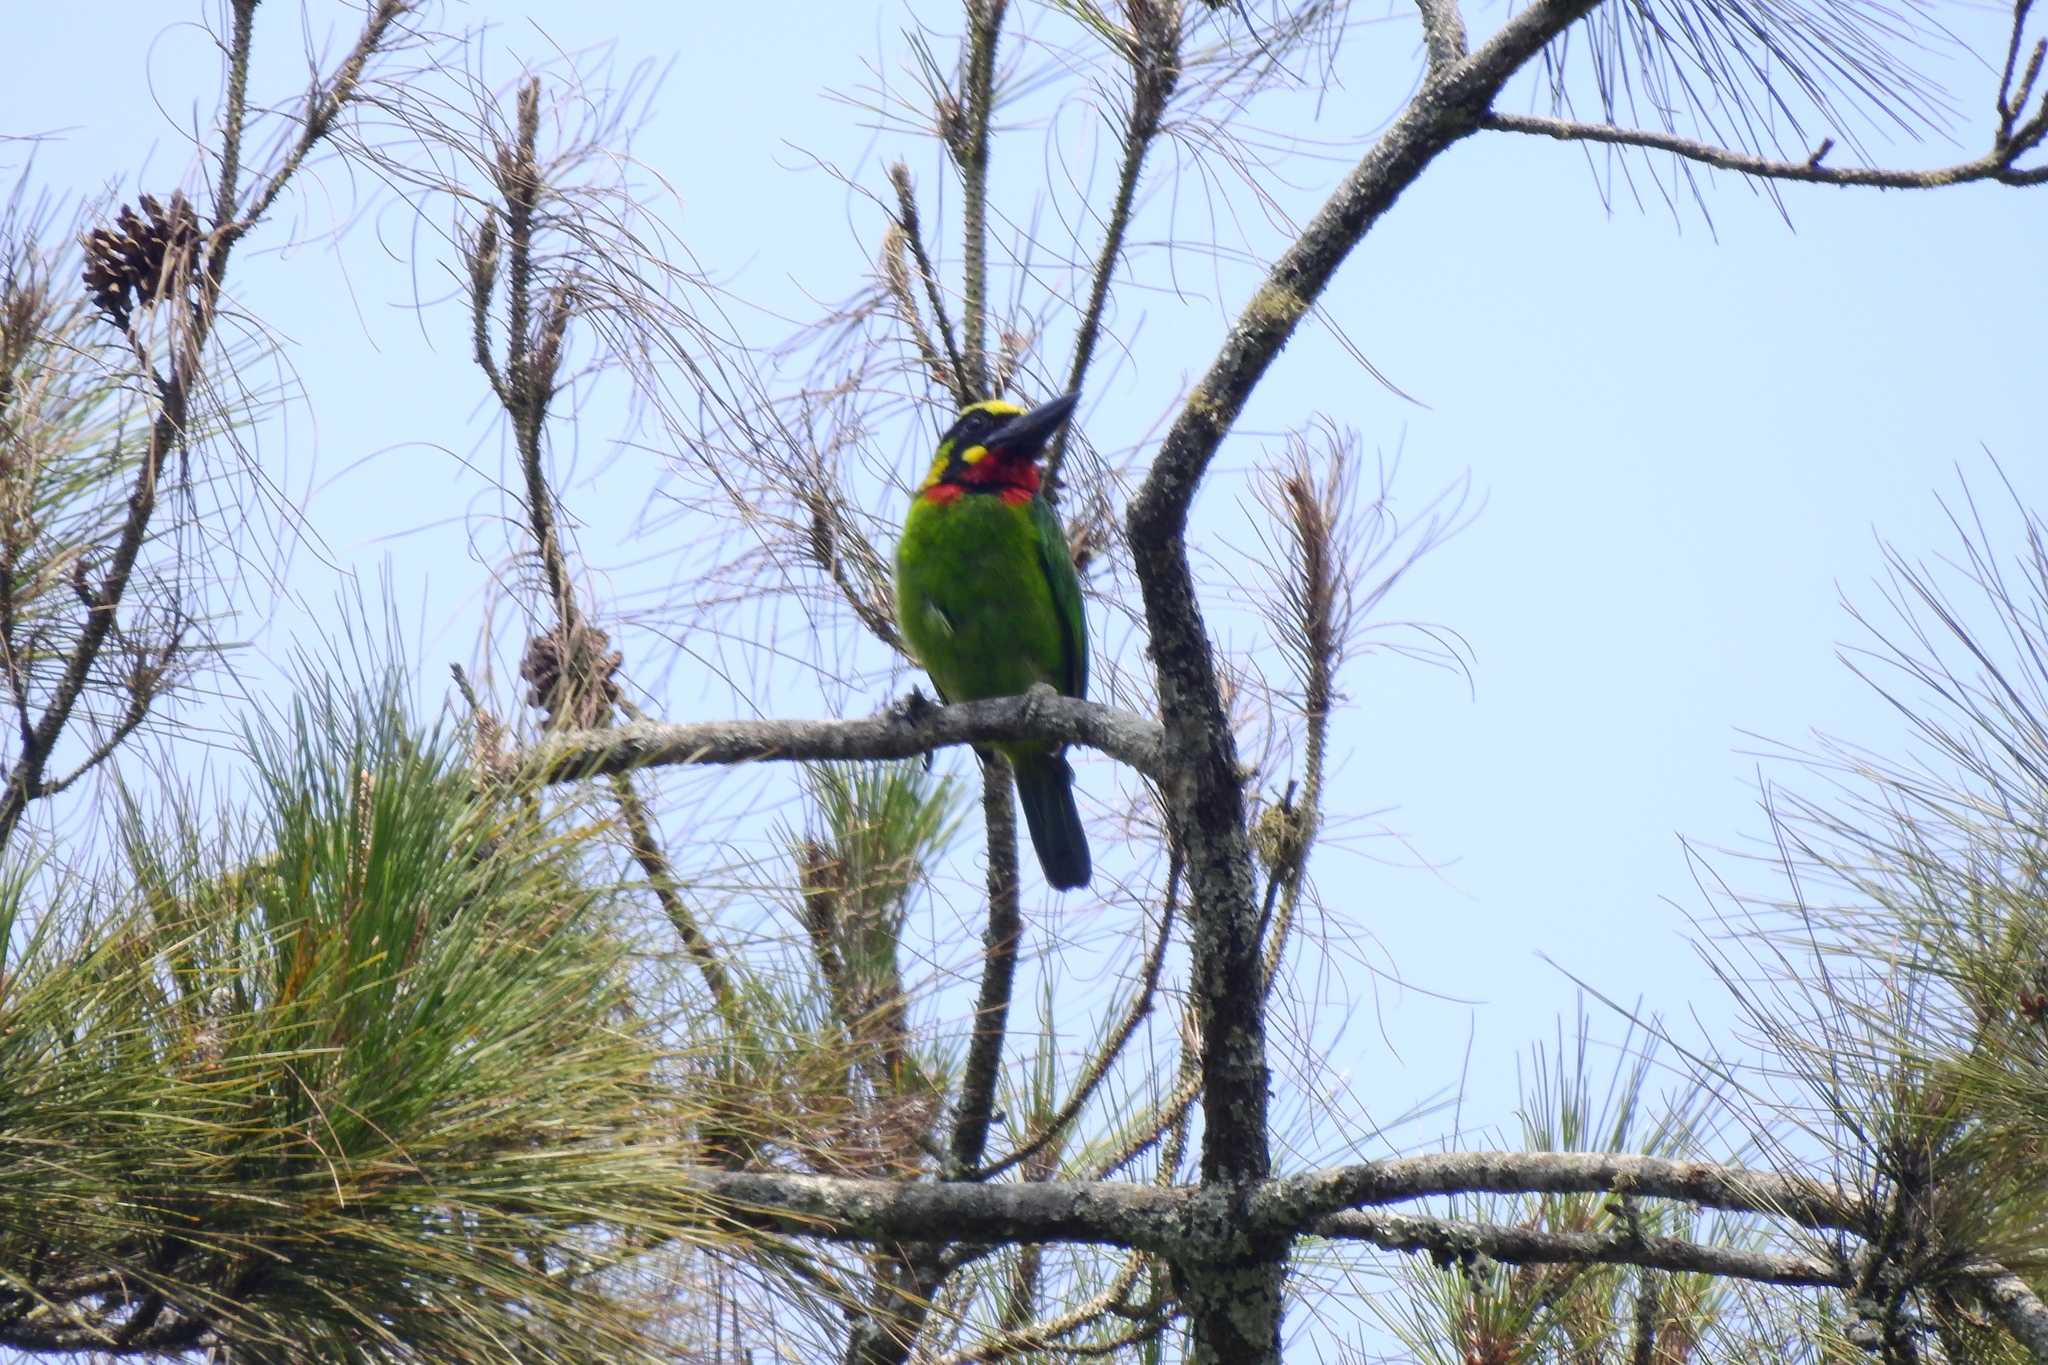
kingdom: Animalia
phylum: Chordata
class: Aves
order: Piciformes
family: Megalaimidae
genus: Psilopogon
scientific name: Psilopogon javensis
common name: Black-banded barbet
